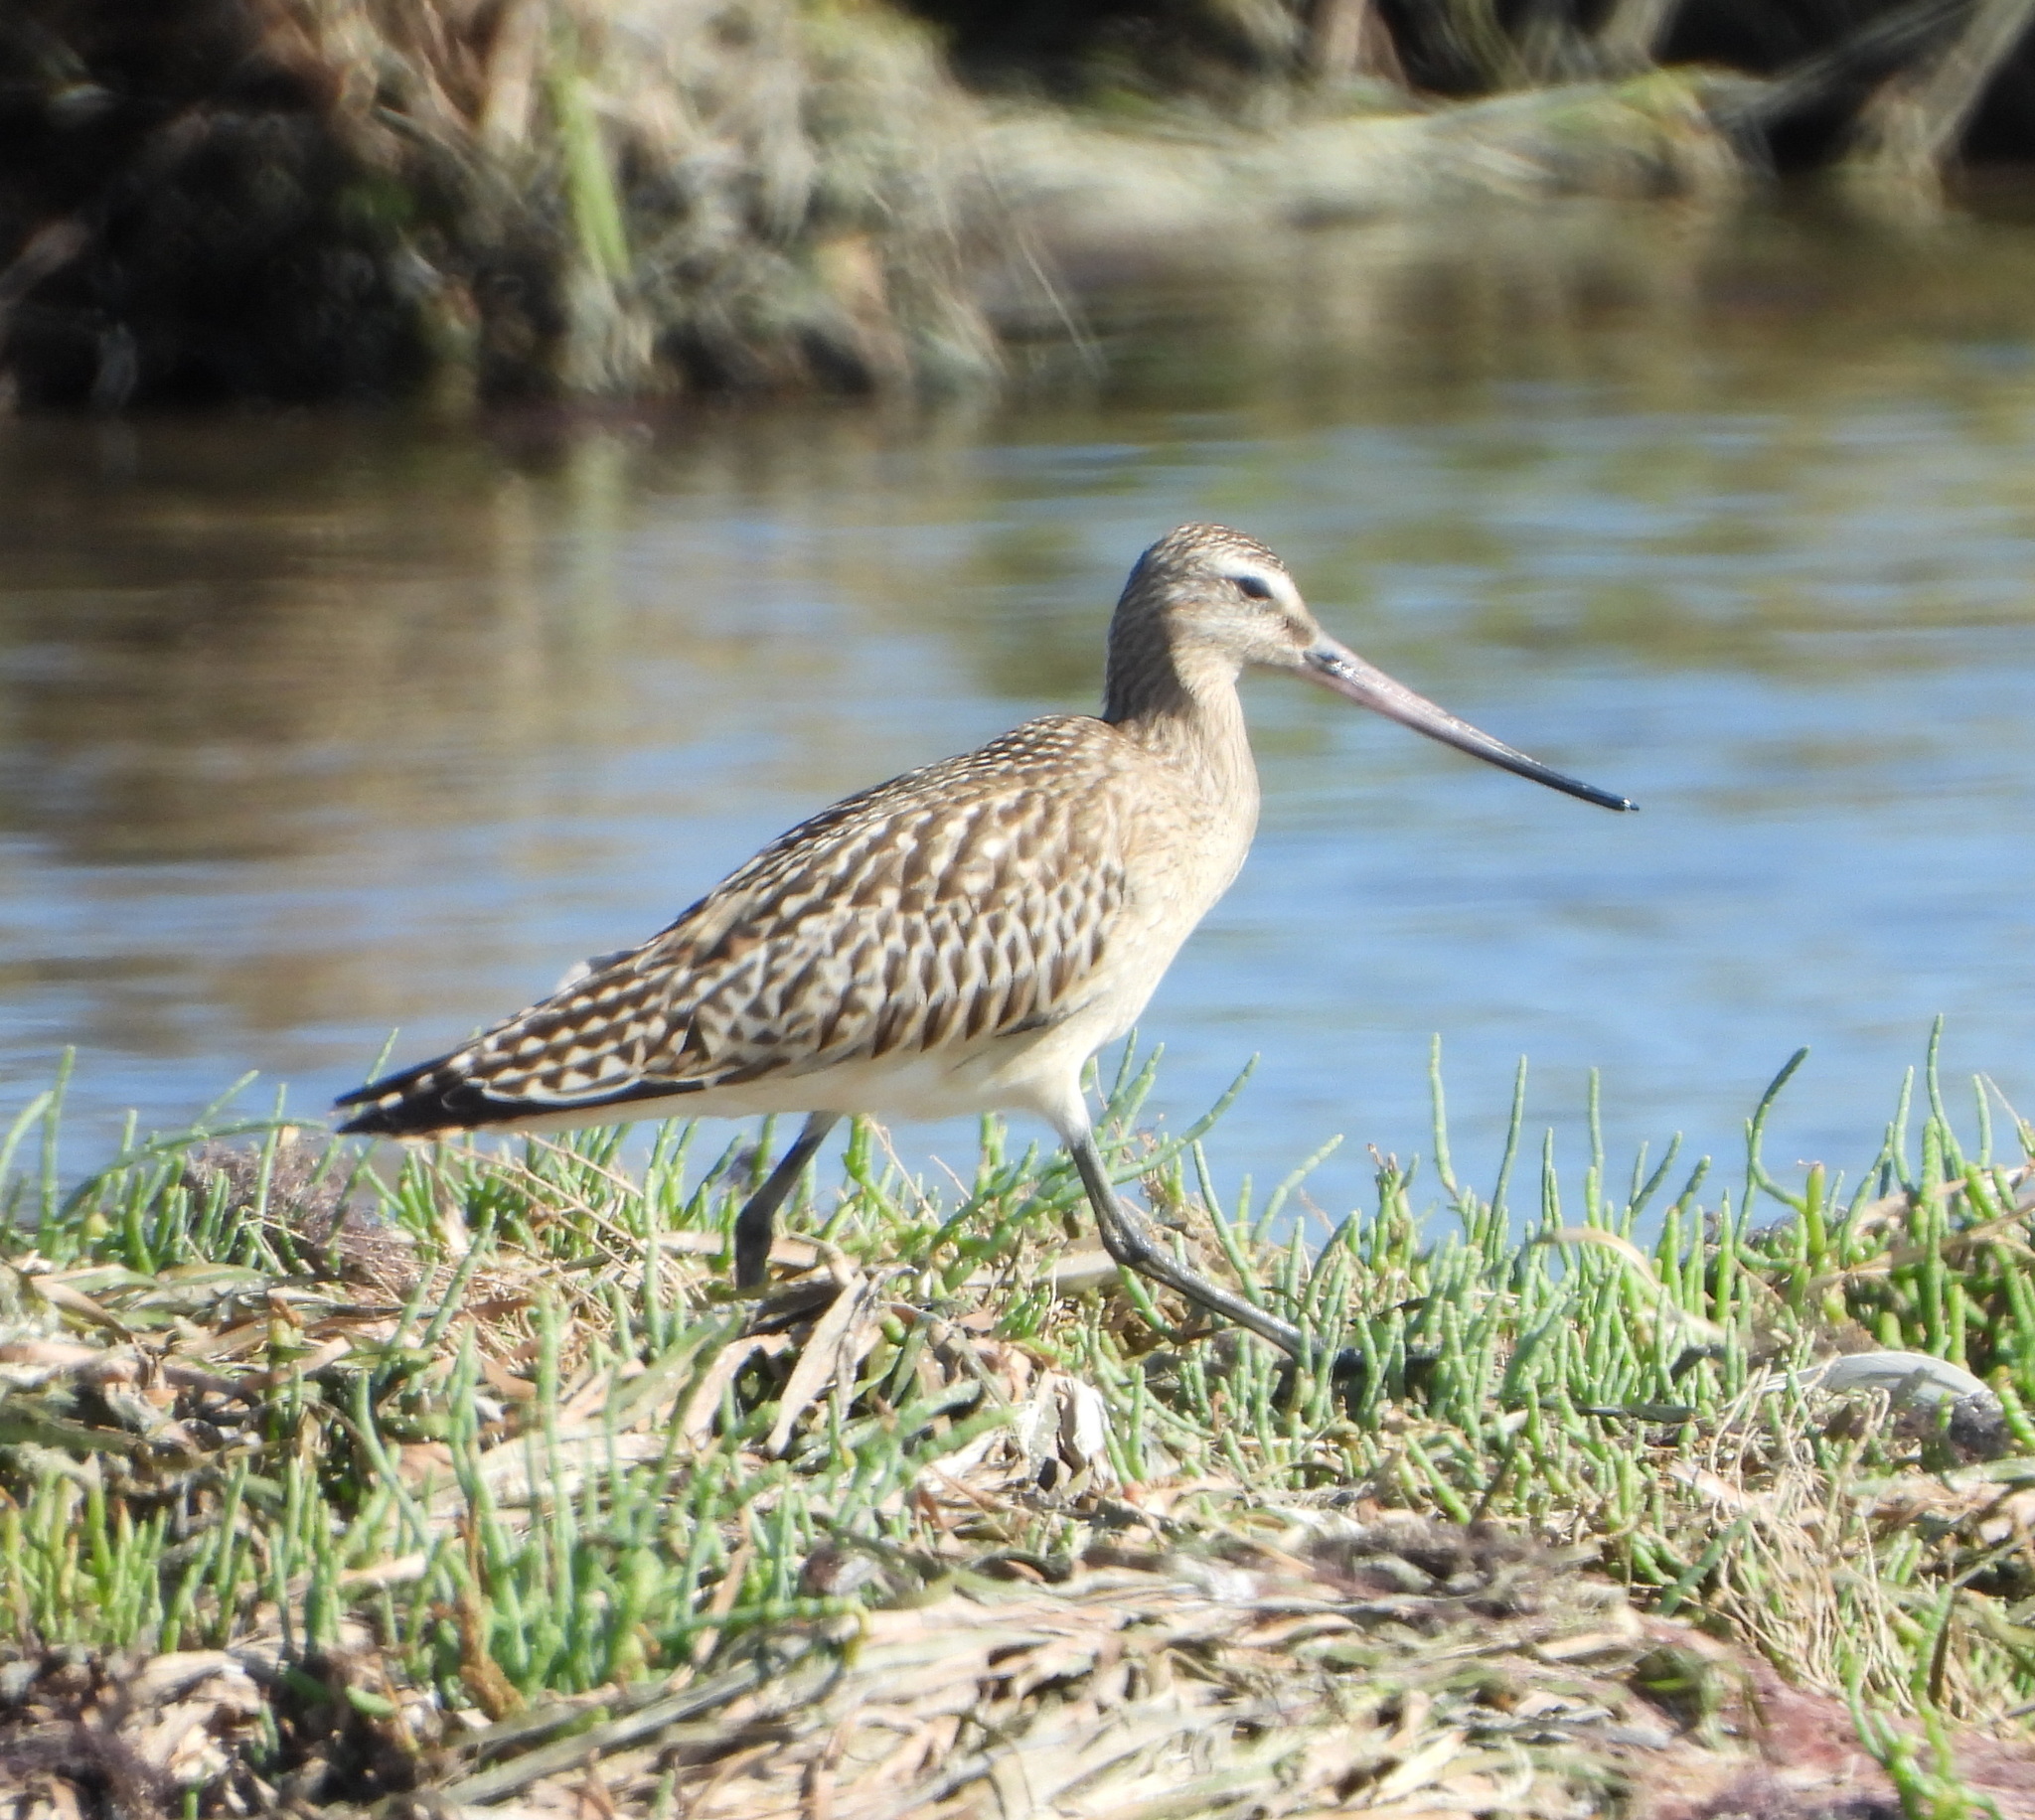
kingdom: Animalia
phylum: Chordata
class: Aves
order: Charadriiformes
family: Scolopacidae
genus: Limosa
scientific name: Limosa lapponica
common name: Bar-tailed godwit
